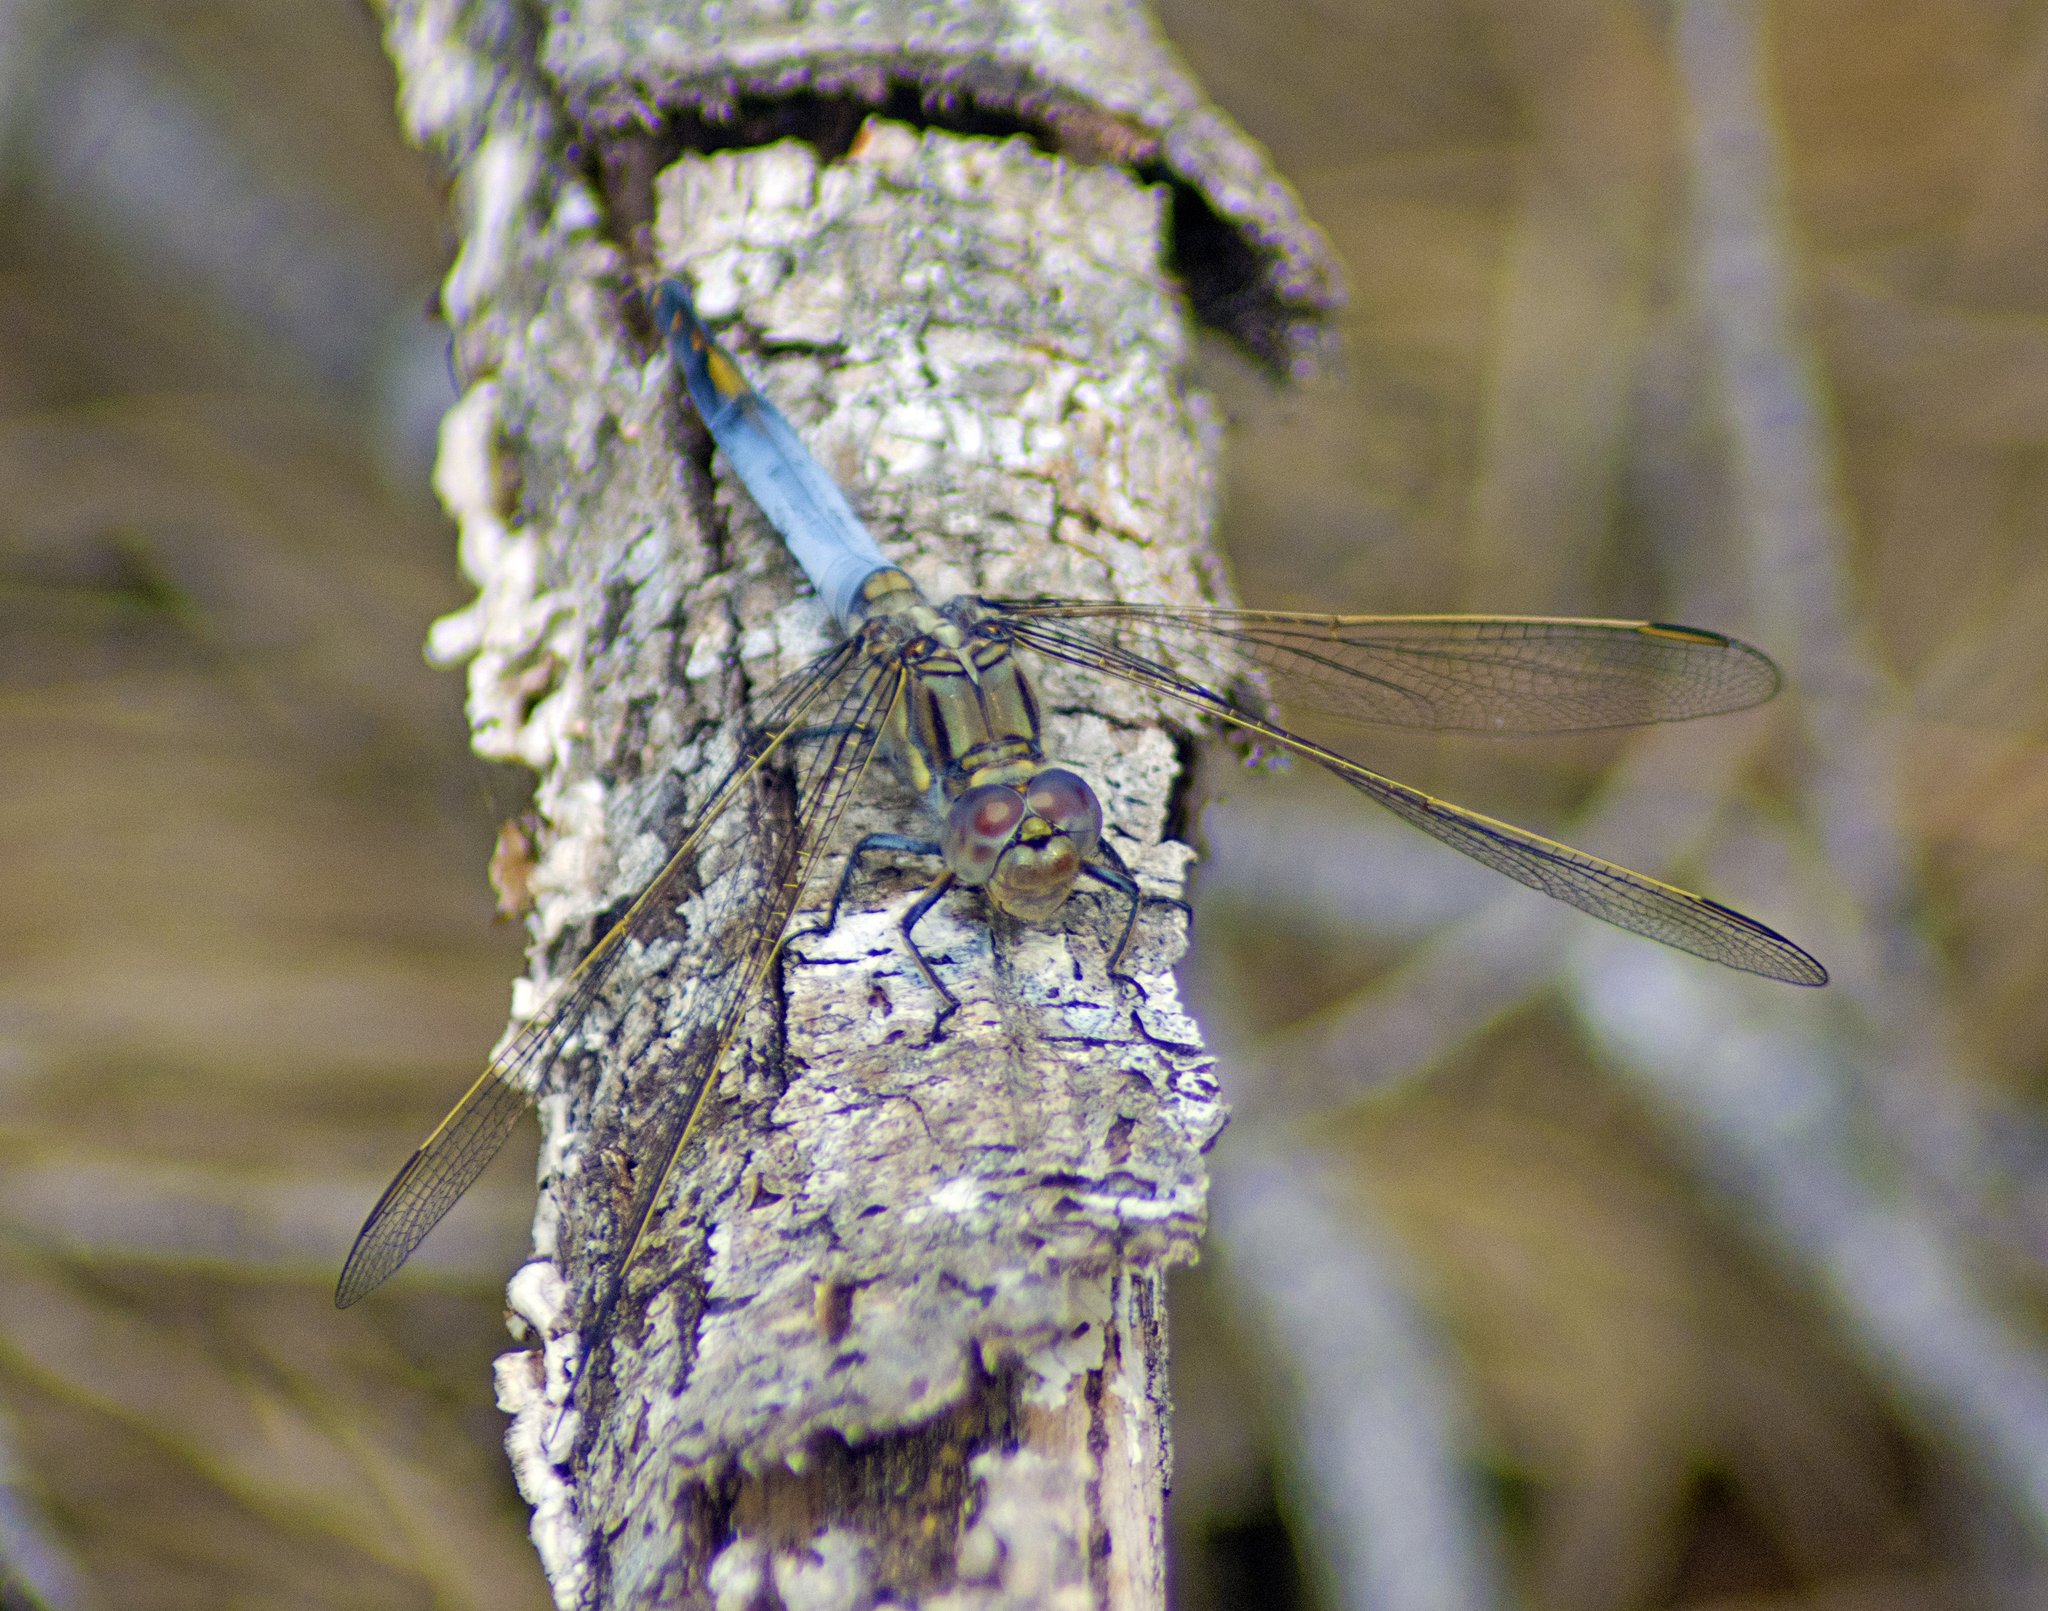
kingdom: Animalia
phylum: Arthropoda
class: Insecta
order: Odonata
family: Libellulidae
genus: Orthetrum
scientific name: Orthetrum caledonicum
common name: Blue skimmer
